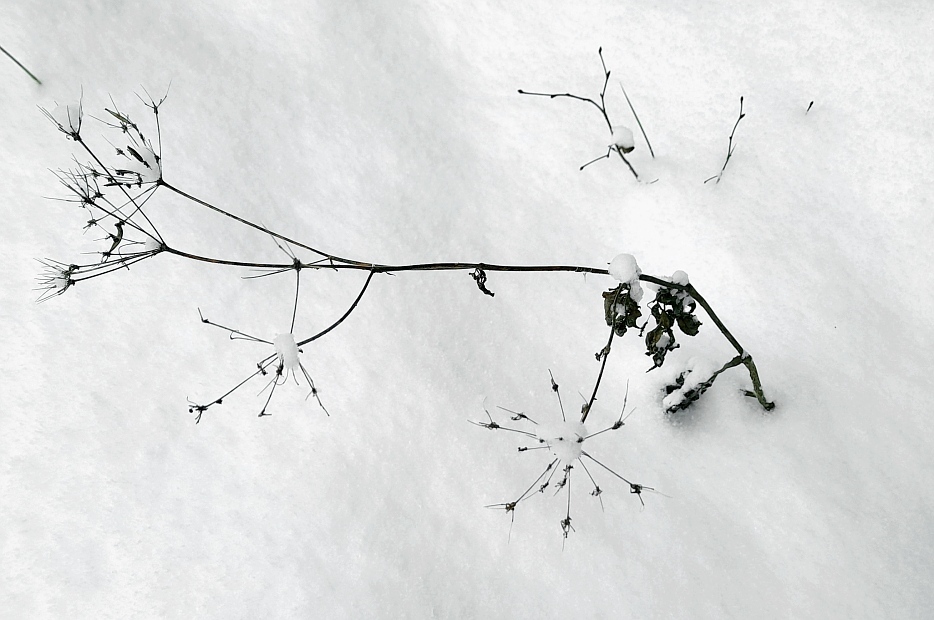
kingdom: Plantae
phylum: Tracheophyta
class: Magnoliopsida
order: Apiales
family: Apiaceae
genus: Chaerophyllum
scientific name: Chaerophyllum aromaticum
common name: Broadleaf chervil
